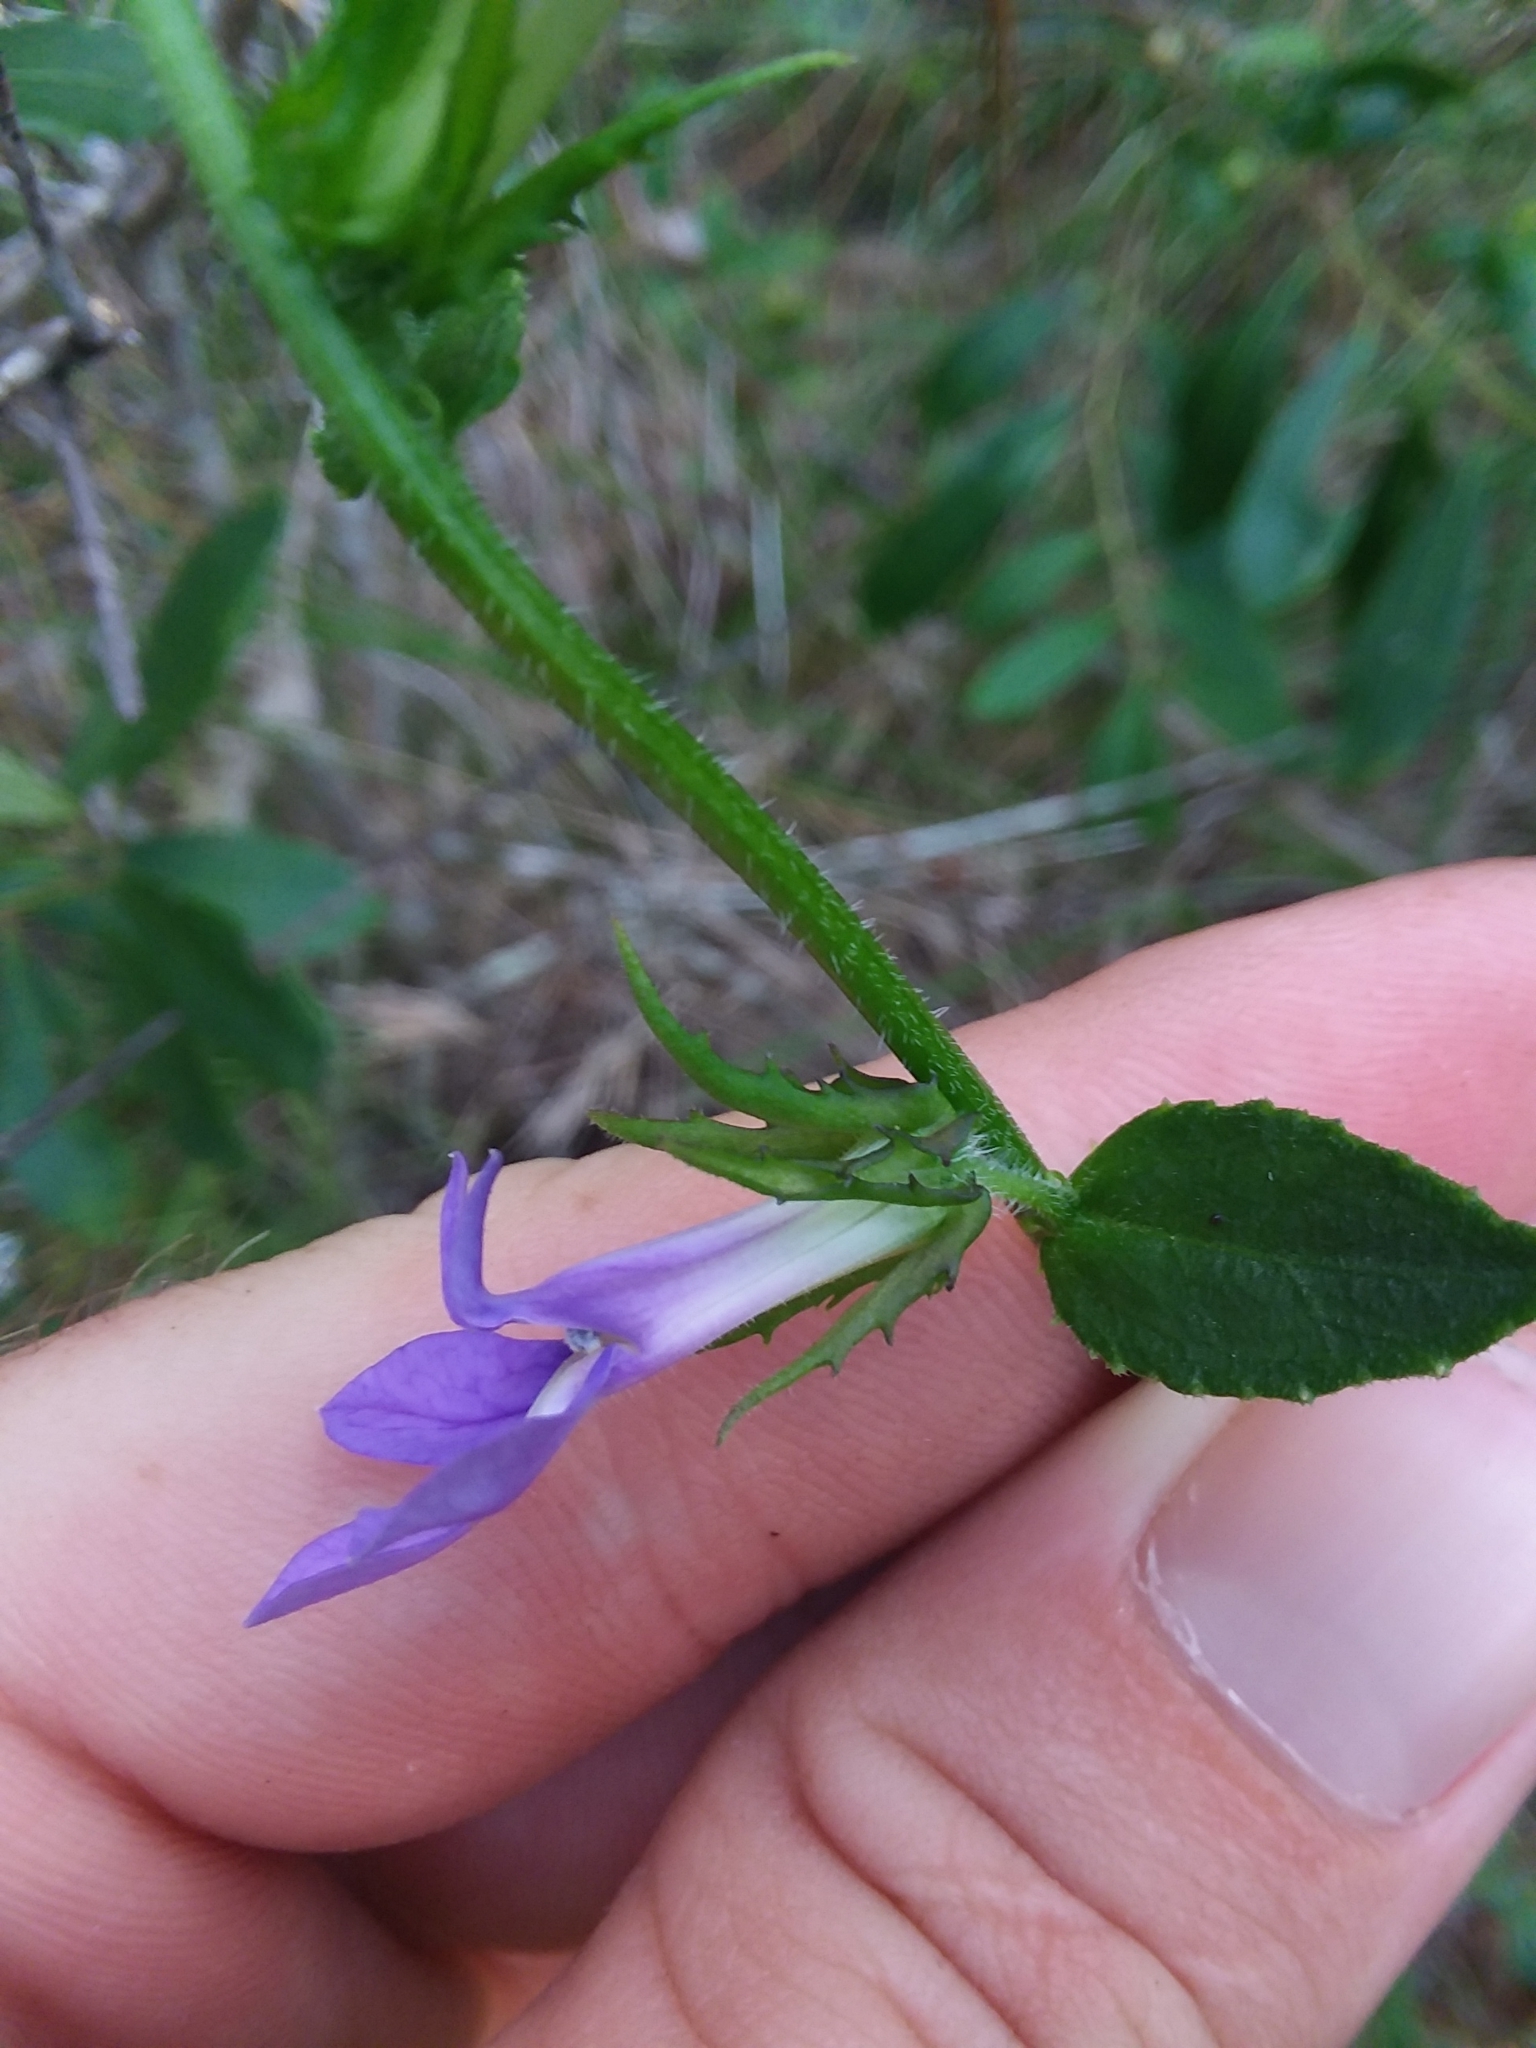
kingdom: Plantae
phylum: Tracheophyta
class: Magnoliopsida
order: Asterales
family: Campanulaceae
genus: Lobelia
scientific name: Lobelia rogersii
